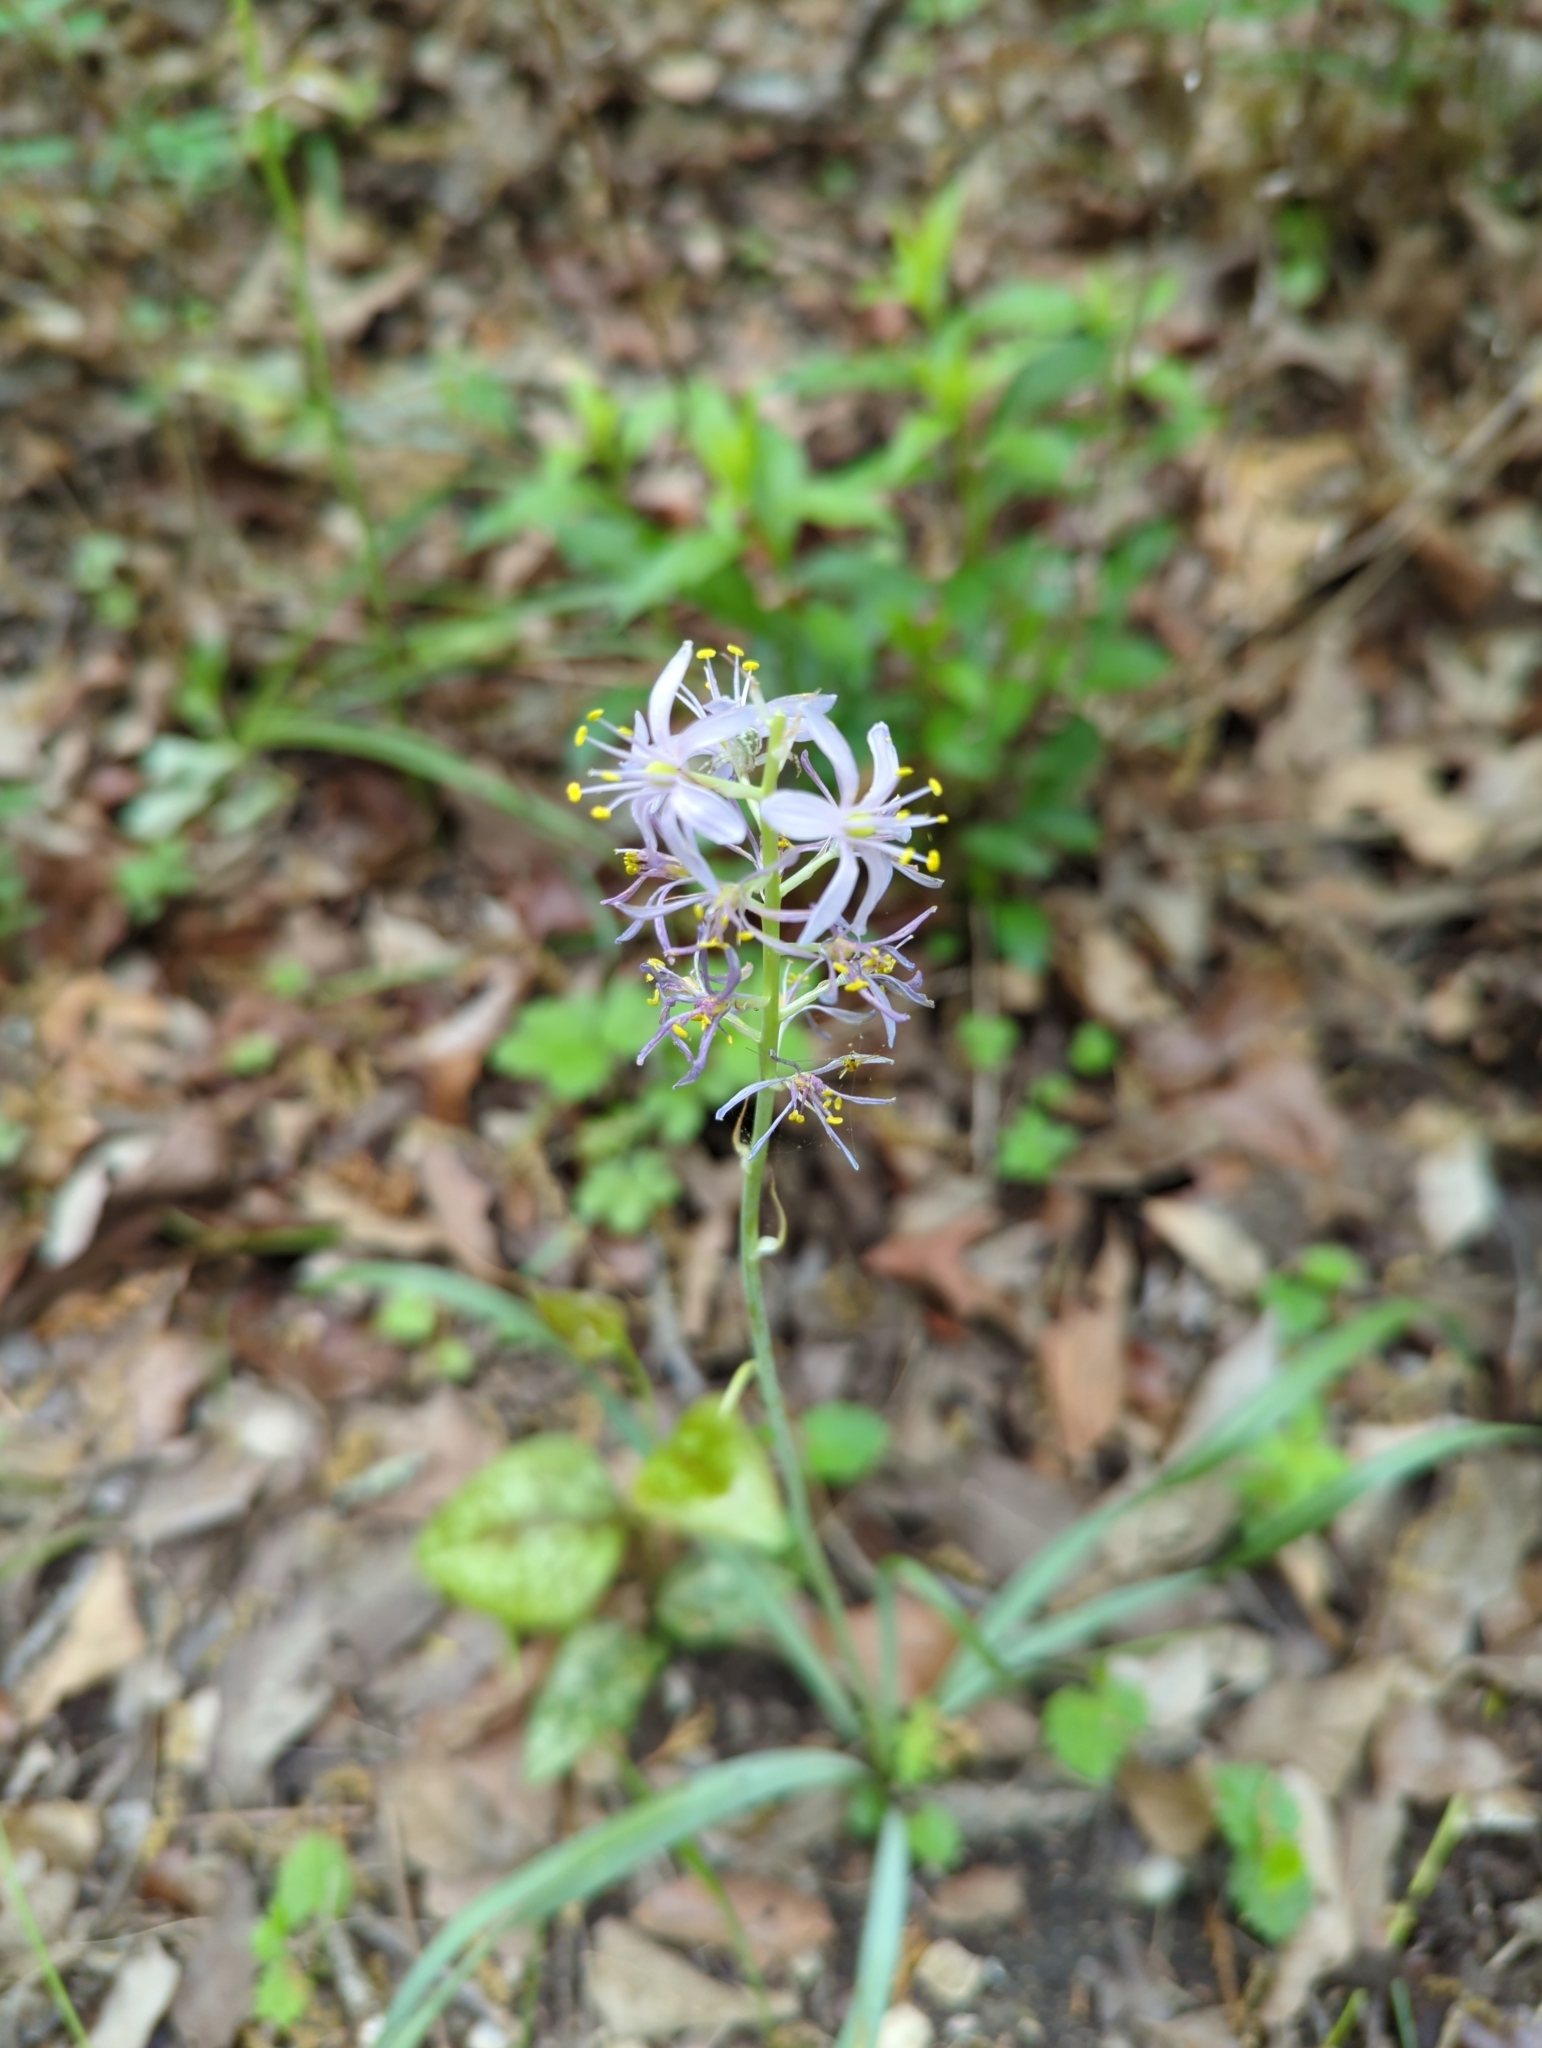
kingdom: Plantae
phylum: Tracheophyta
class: Liliopsida
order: Asparagales
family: Asparagaceae
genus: Camassia
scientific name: Camassia scilloides
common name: Wild hyacinth
